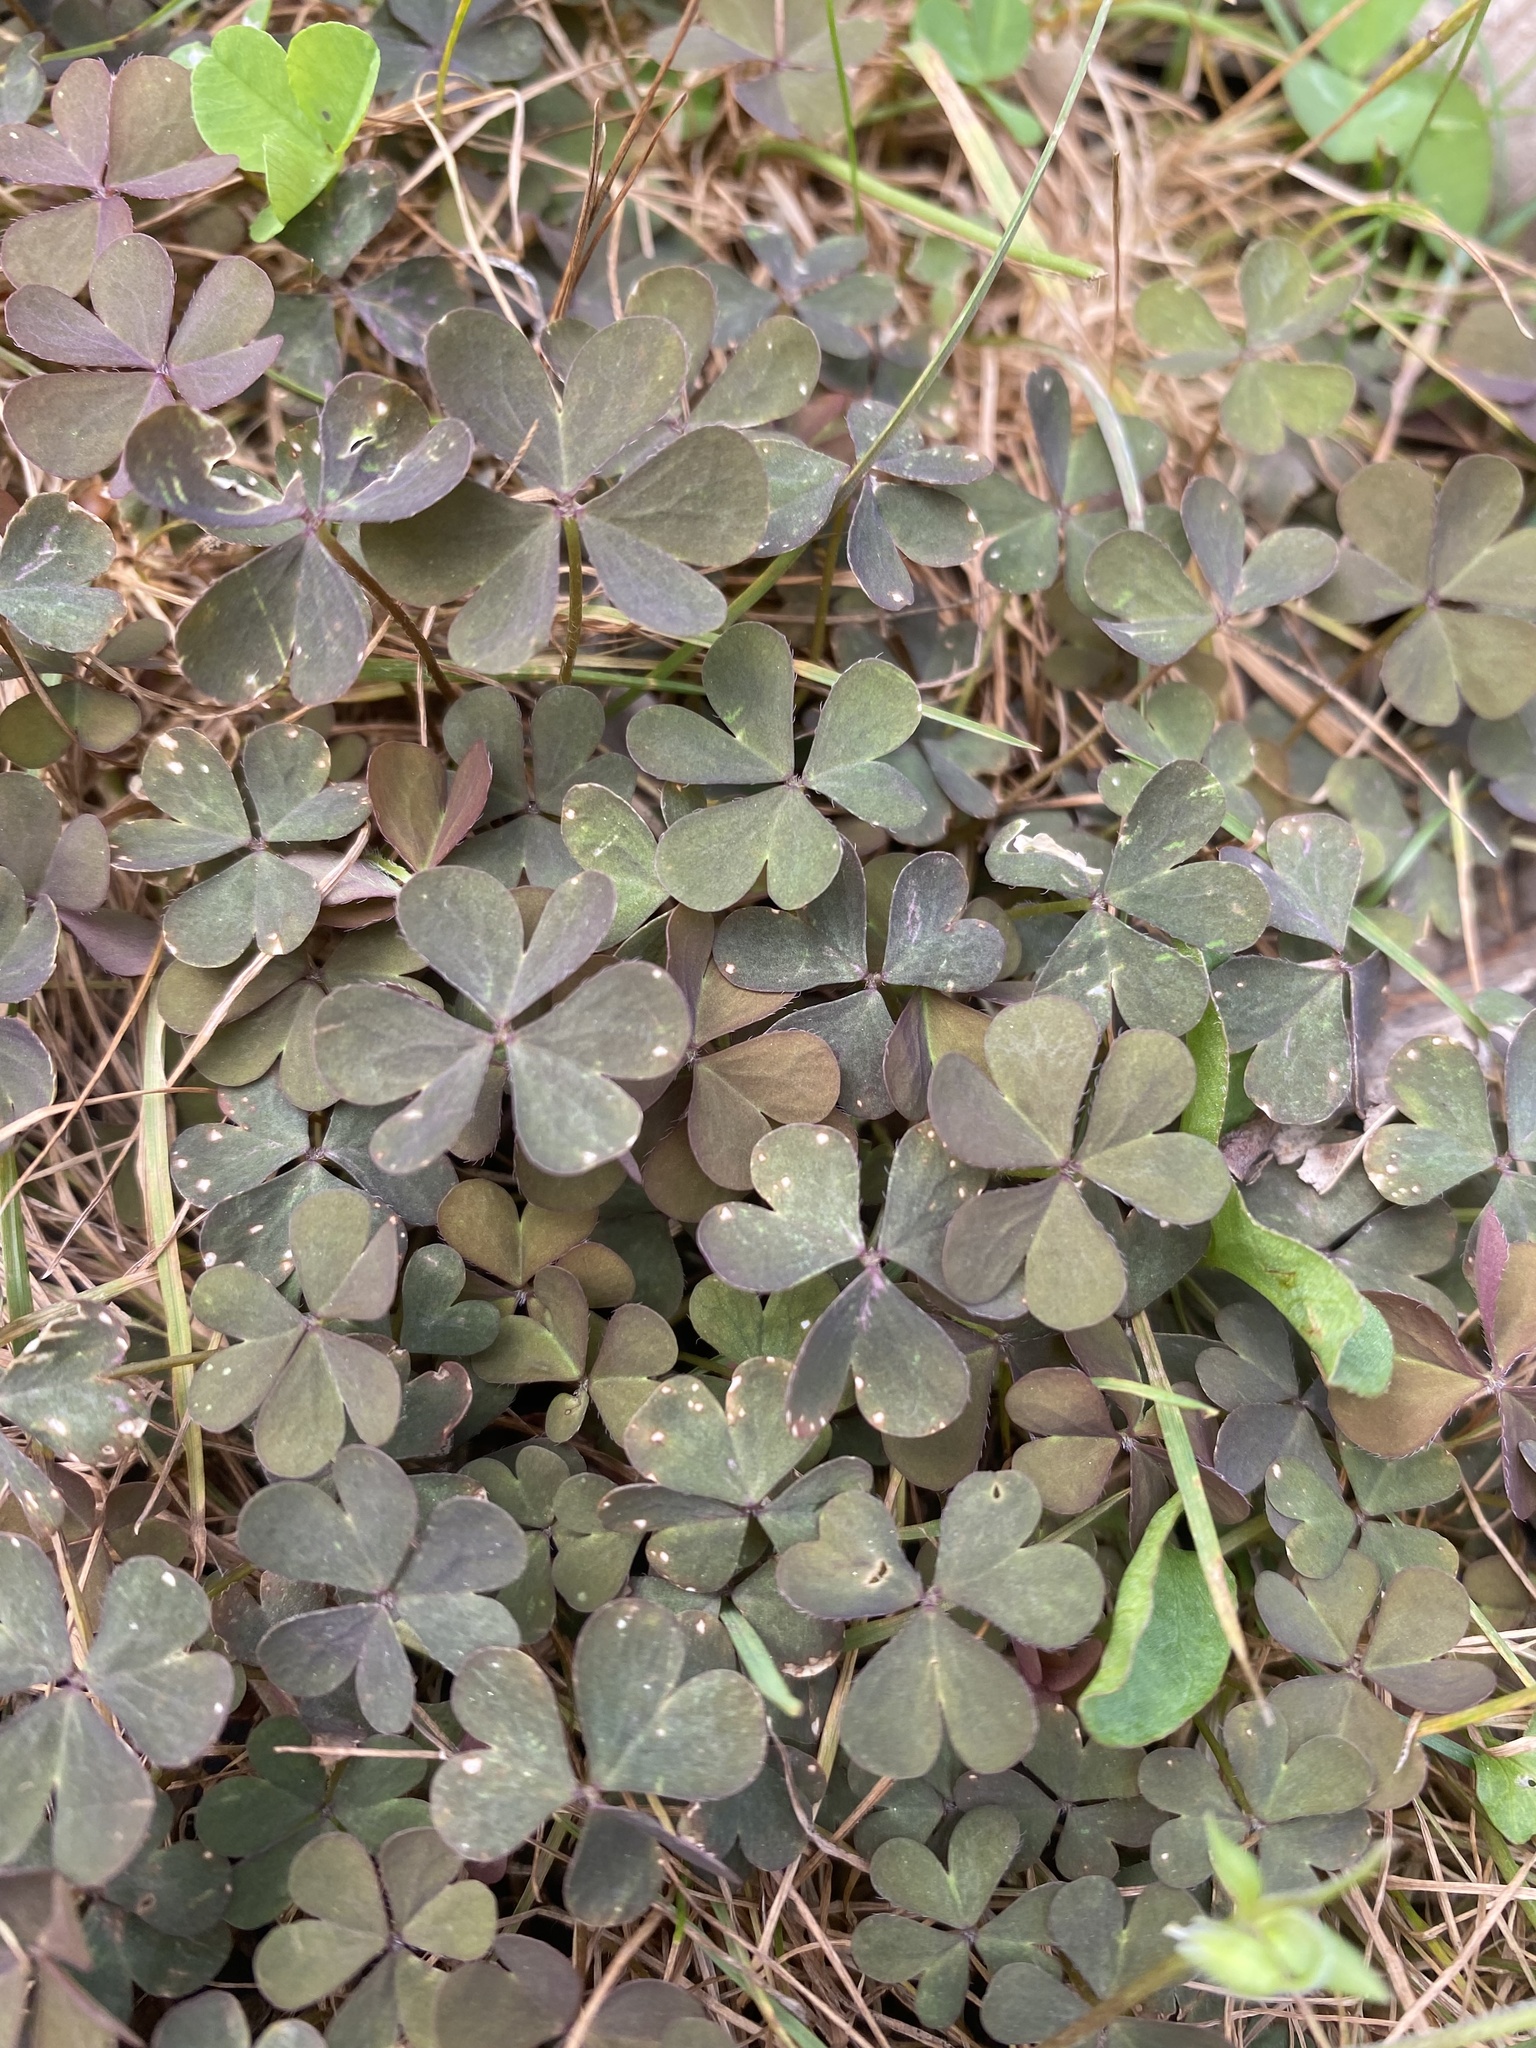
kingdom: Plantae
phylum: Tracheophyta
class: Magnoliopsida
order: Oxalidales
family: Oxalidaceae
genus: Oxalis
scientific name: Oxalis corniculata
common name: Procumbent yellow-sorrel
